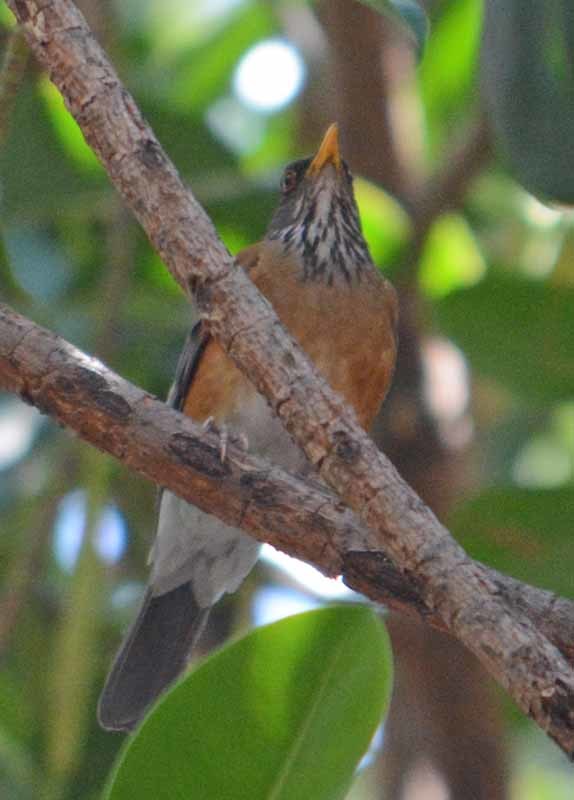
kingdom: Animalia
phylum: Chordata
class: Aves
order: Passeriformes
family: Turdidae
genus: Turdus
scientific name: Turdus rufopalliatus
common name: Rufous-backed robin
